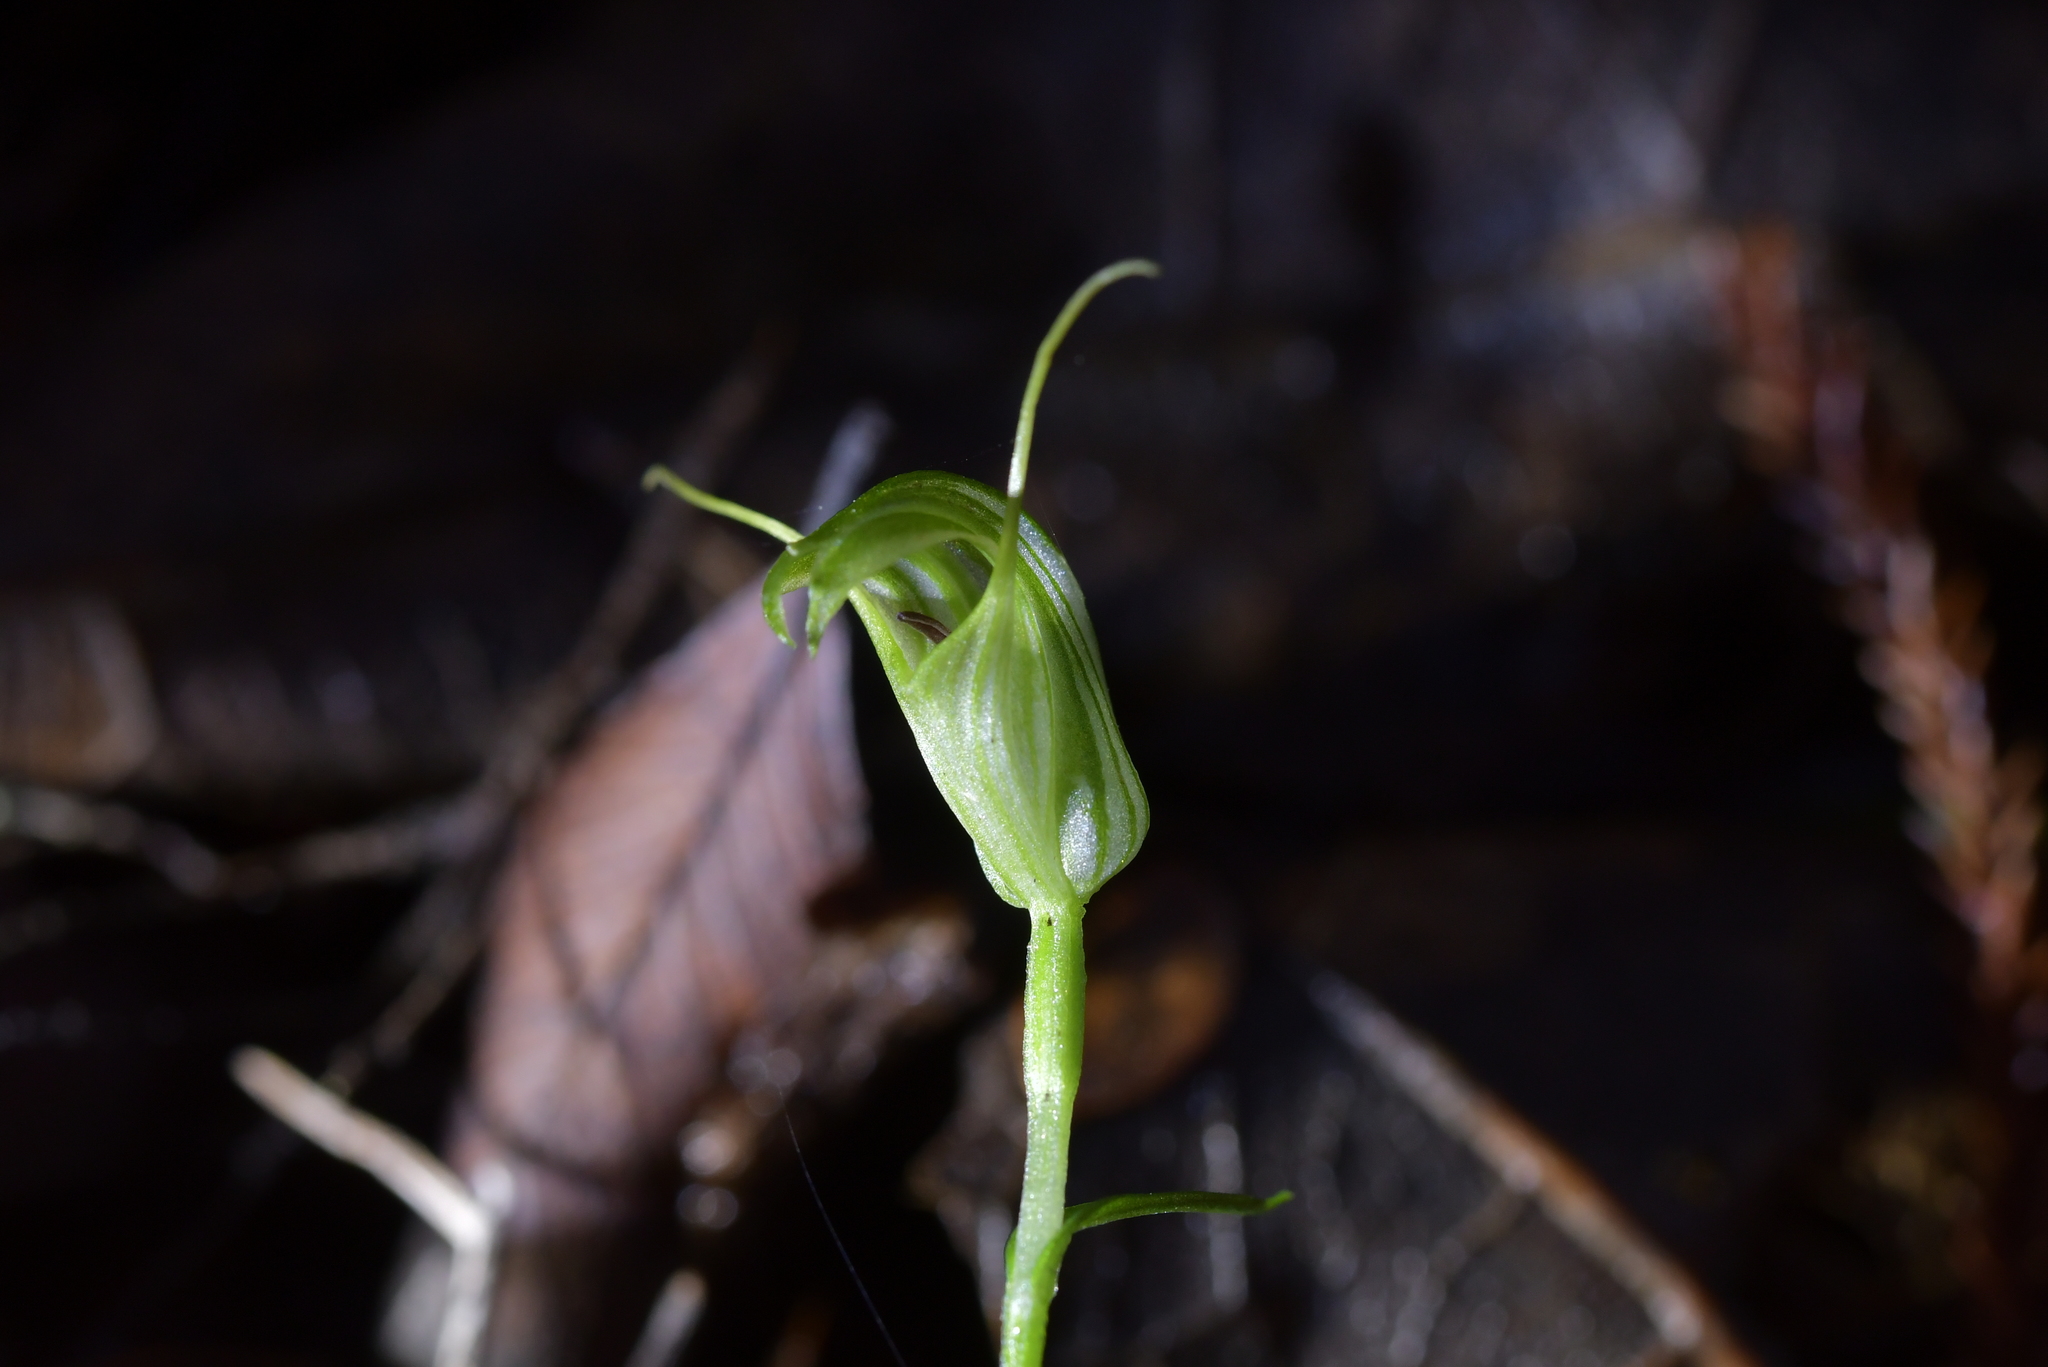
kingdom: Plantae
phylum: Tracheophyta
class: Liliopsida
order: Asparagales
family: Orchidaceae
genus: Pterostylis
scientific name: Pterostylis trullifolia
